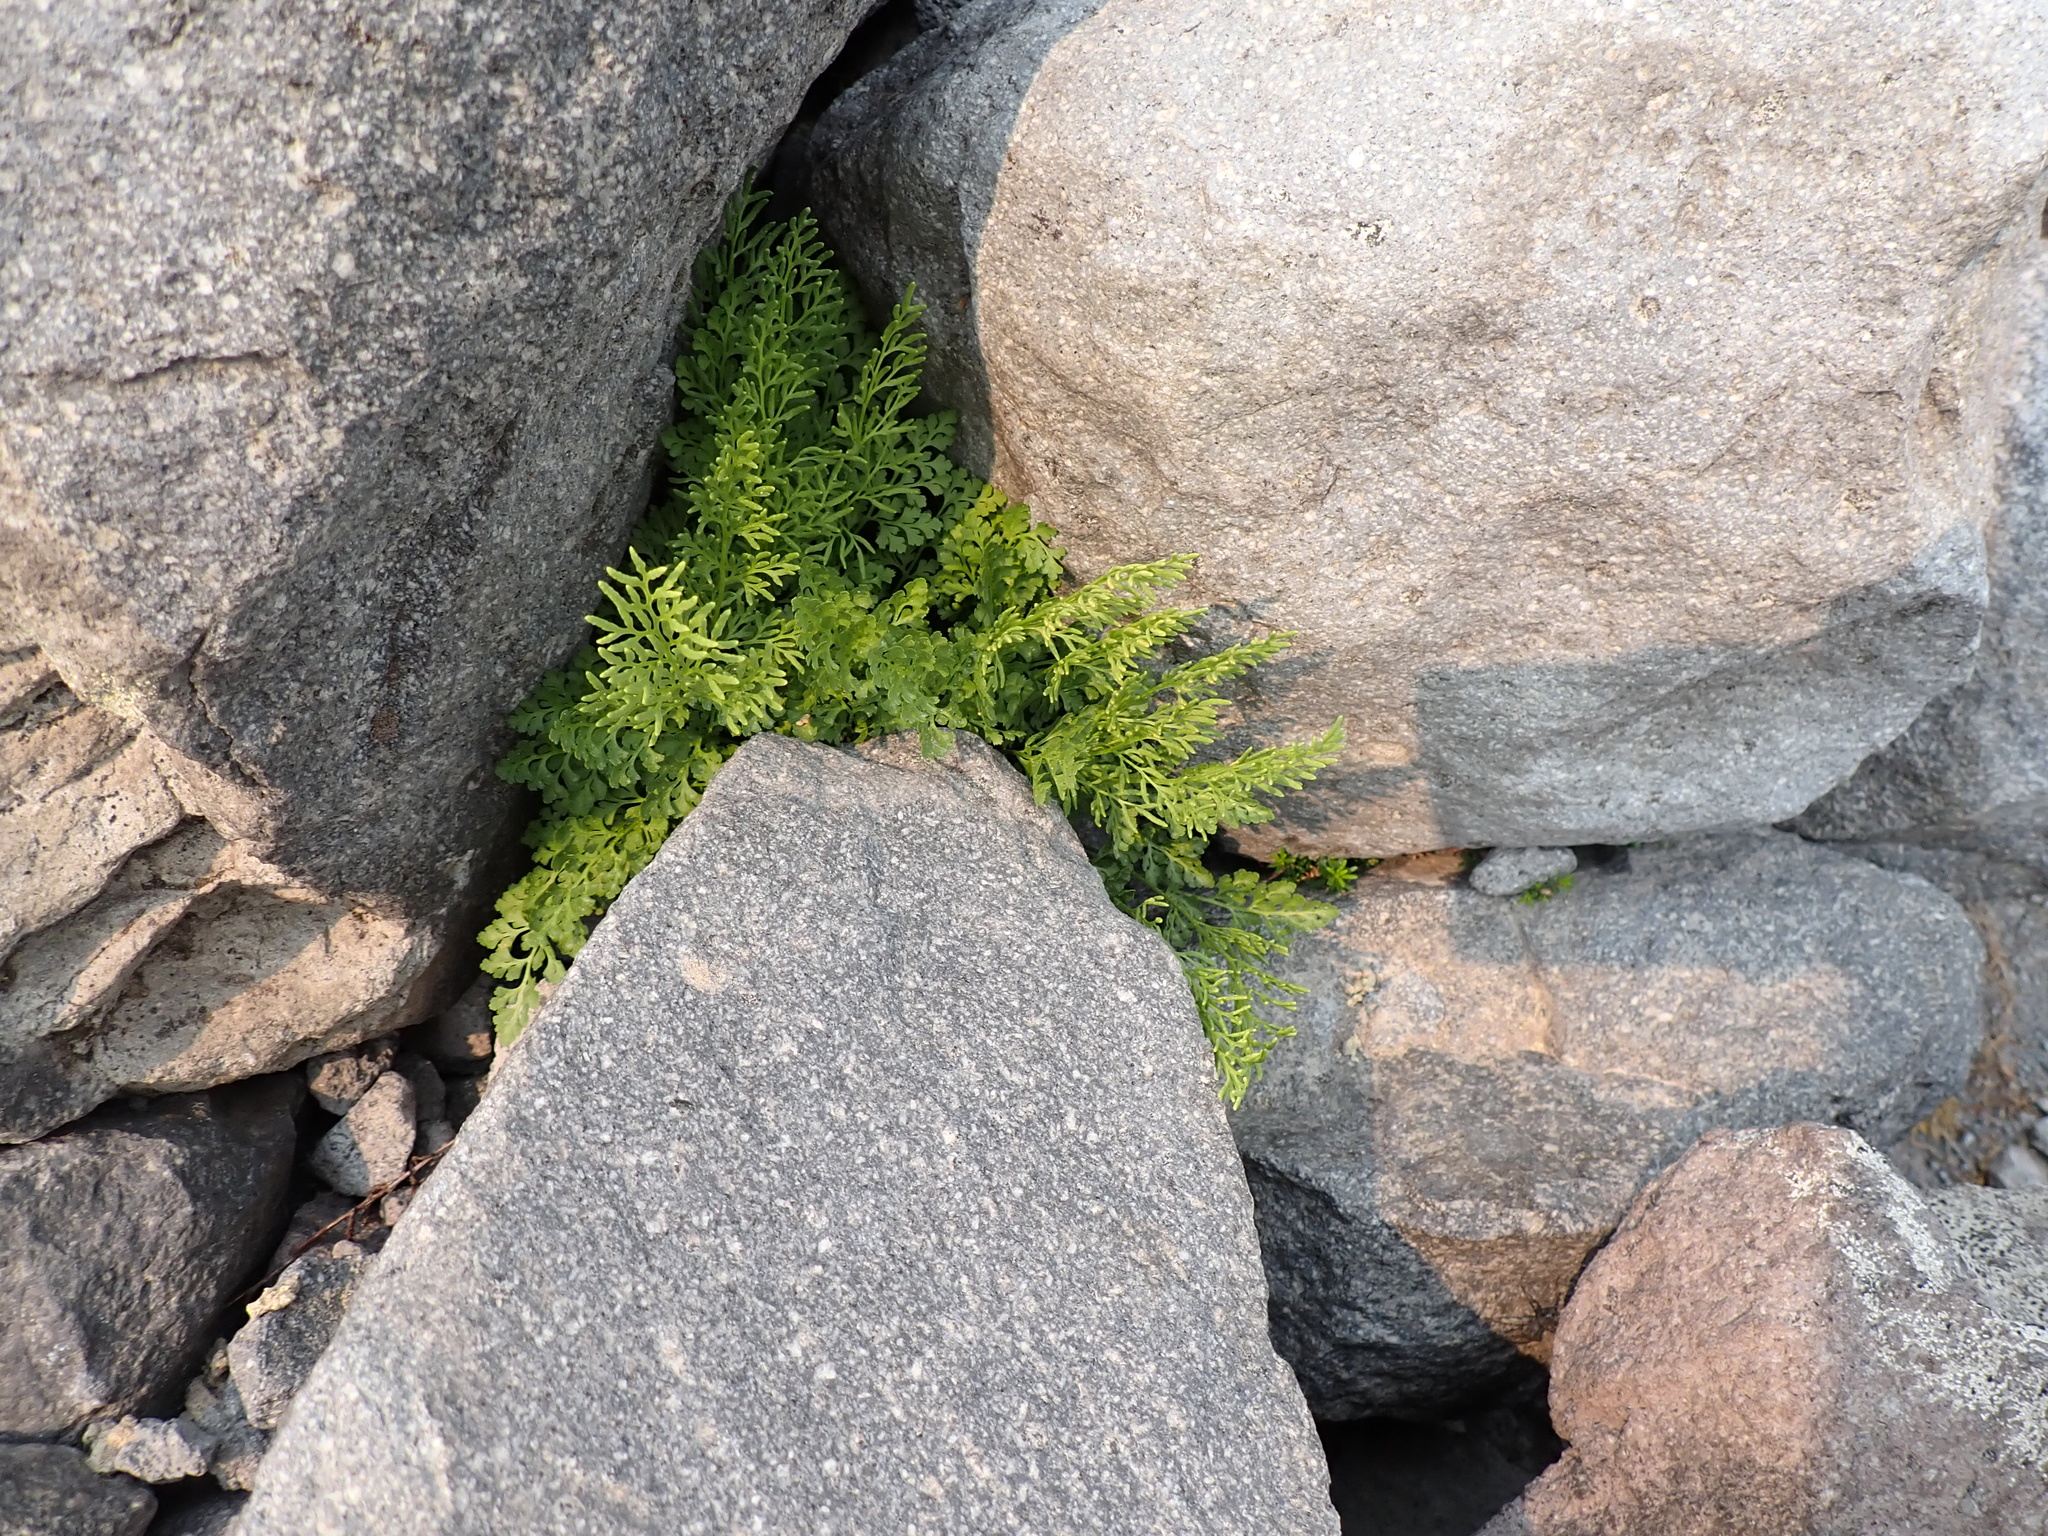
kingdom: Plantae
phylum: Tracheophyta
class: Polypodiopsida
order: Polypodiales
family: Pteridaceae
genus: Cryptogramma
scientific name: Cryptogramma cascadensis
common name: Cascade parsley fern
